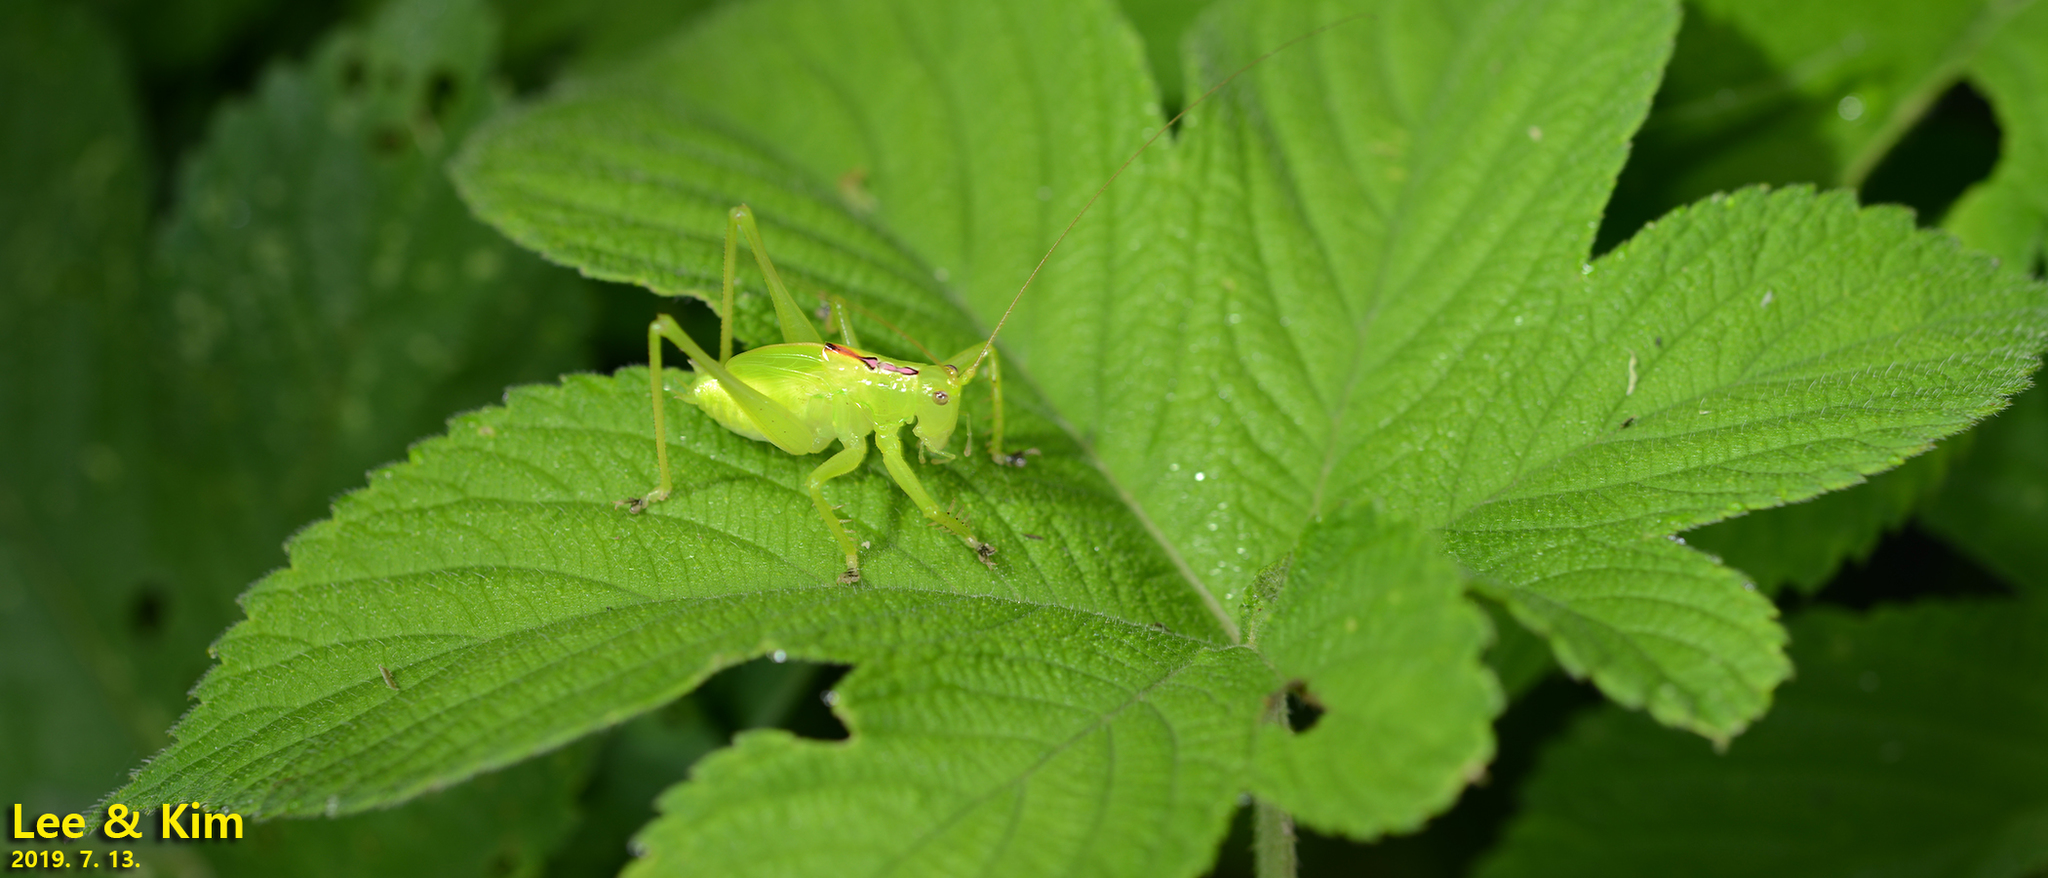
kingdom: Animalia
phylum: Arthropoda
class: Insecta
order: Orthoptera
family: Tettigoniidae
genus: Hexacentrus
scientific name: Hexacentrus japonicus
